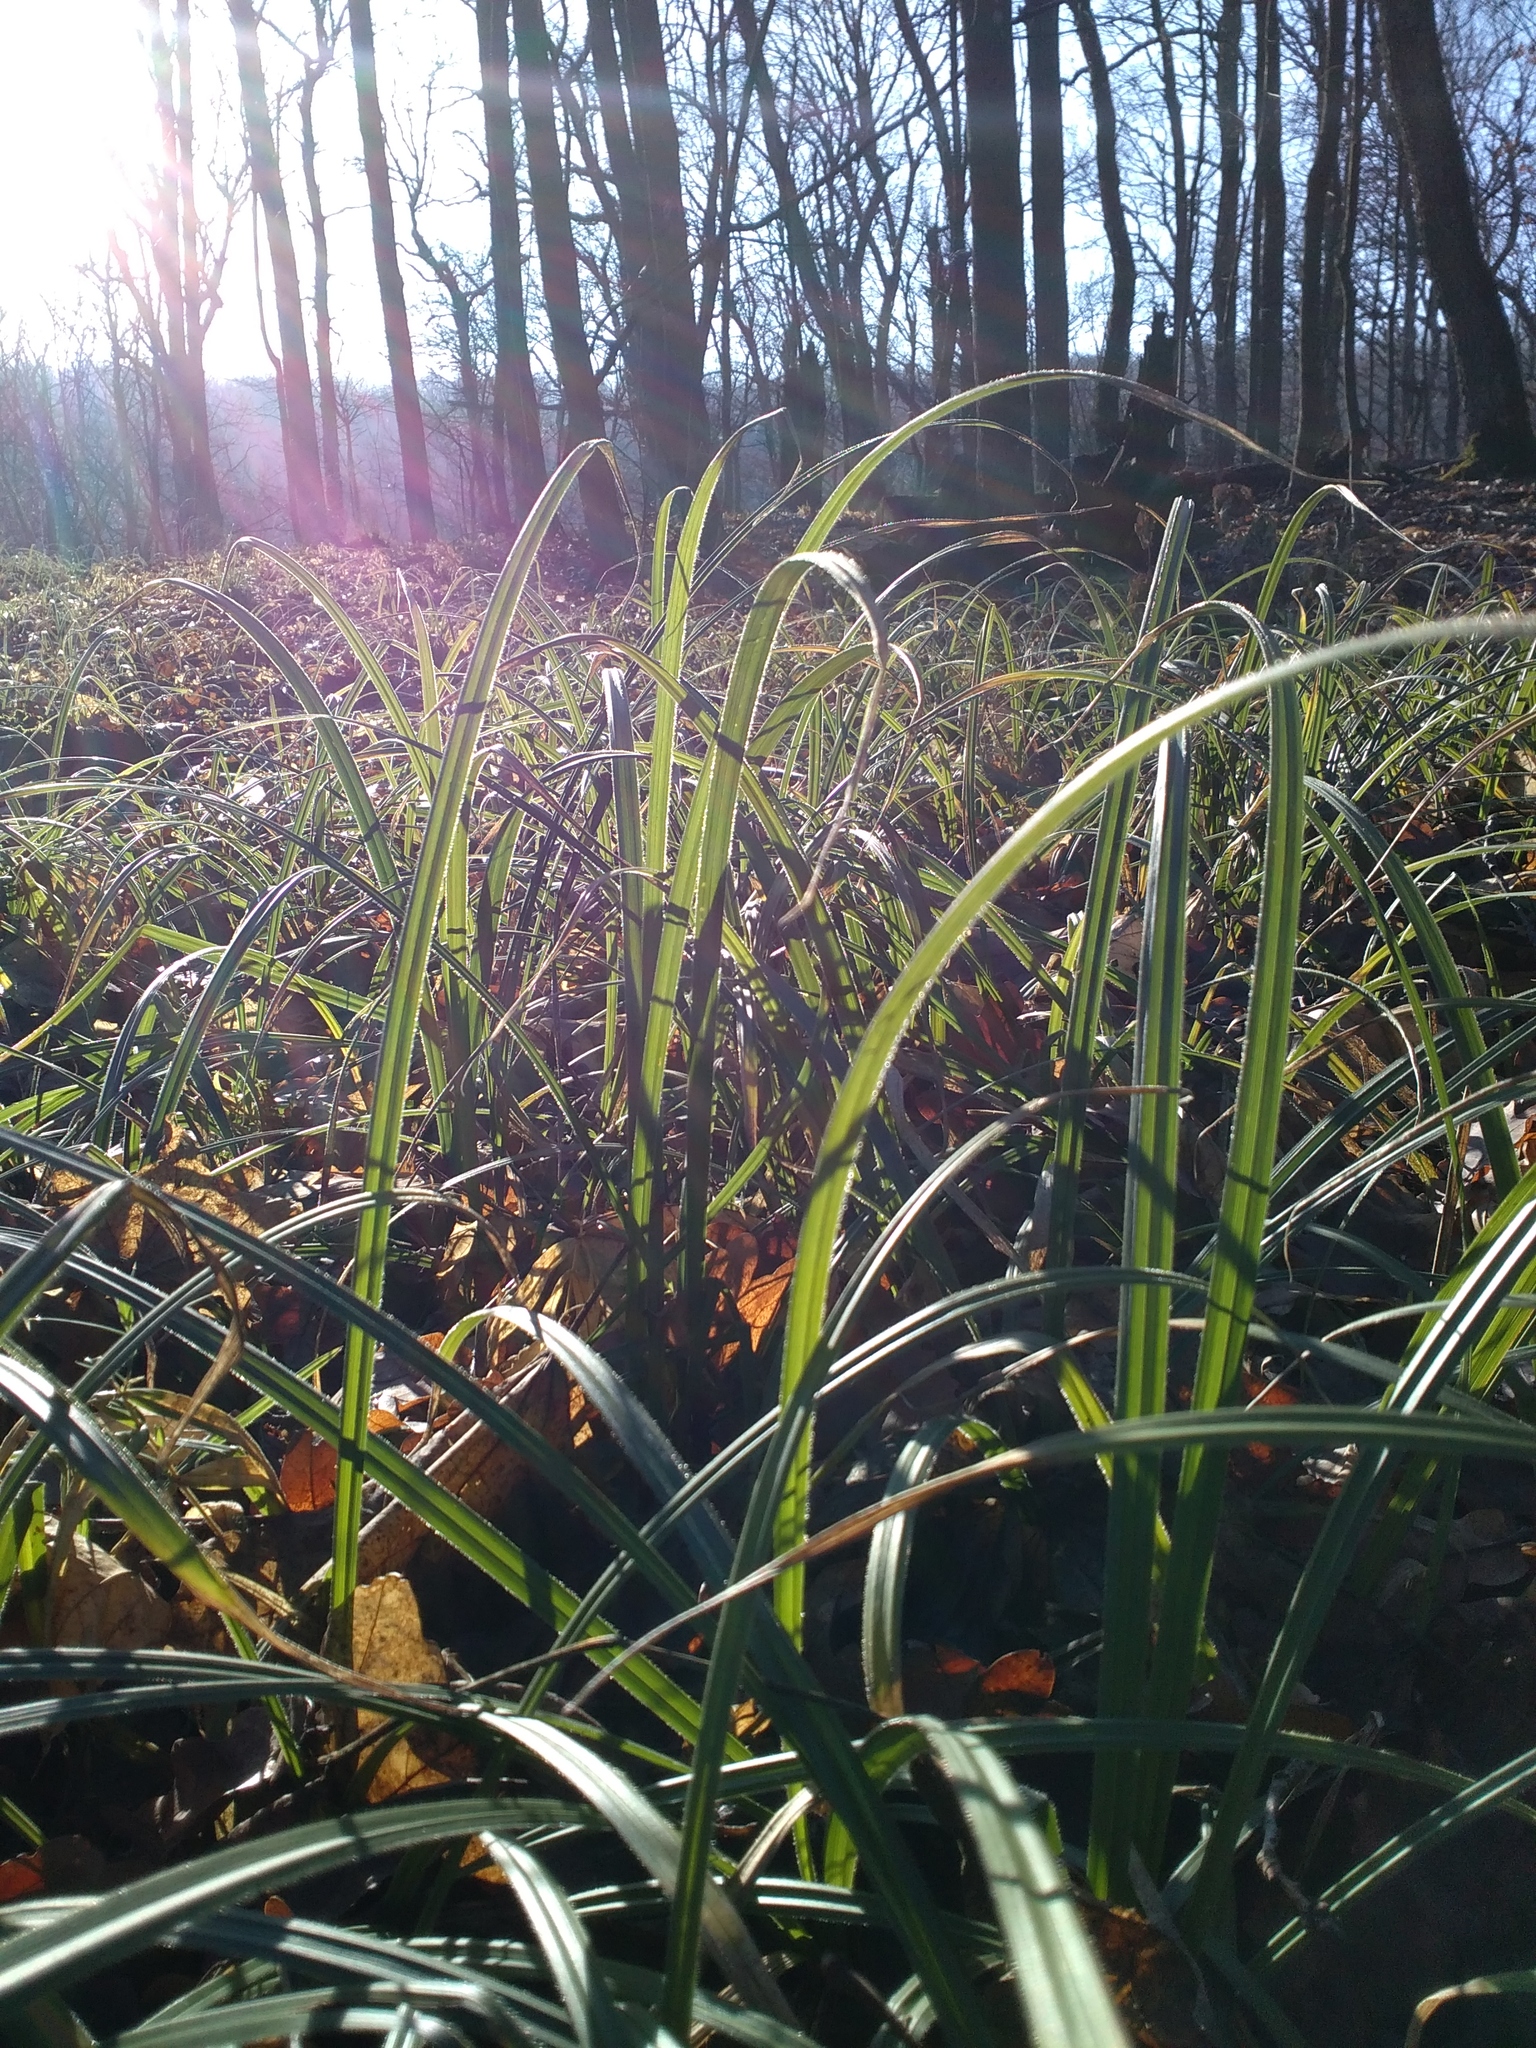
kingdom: Plantae
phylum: Tracheophyta
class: Liliopsida
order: Poales
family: Cyperaceae
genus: Carex
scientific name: Carex pilosa
